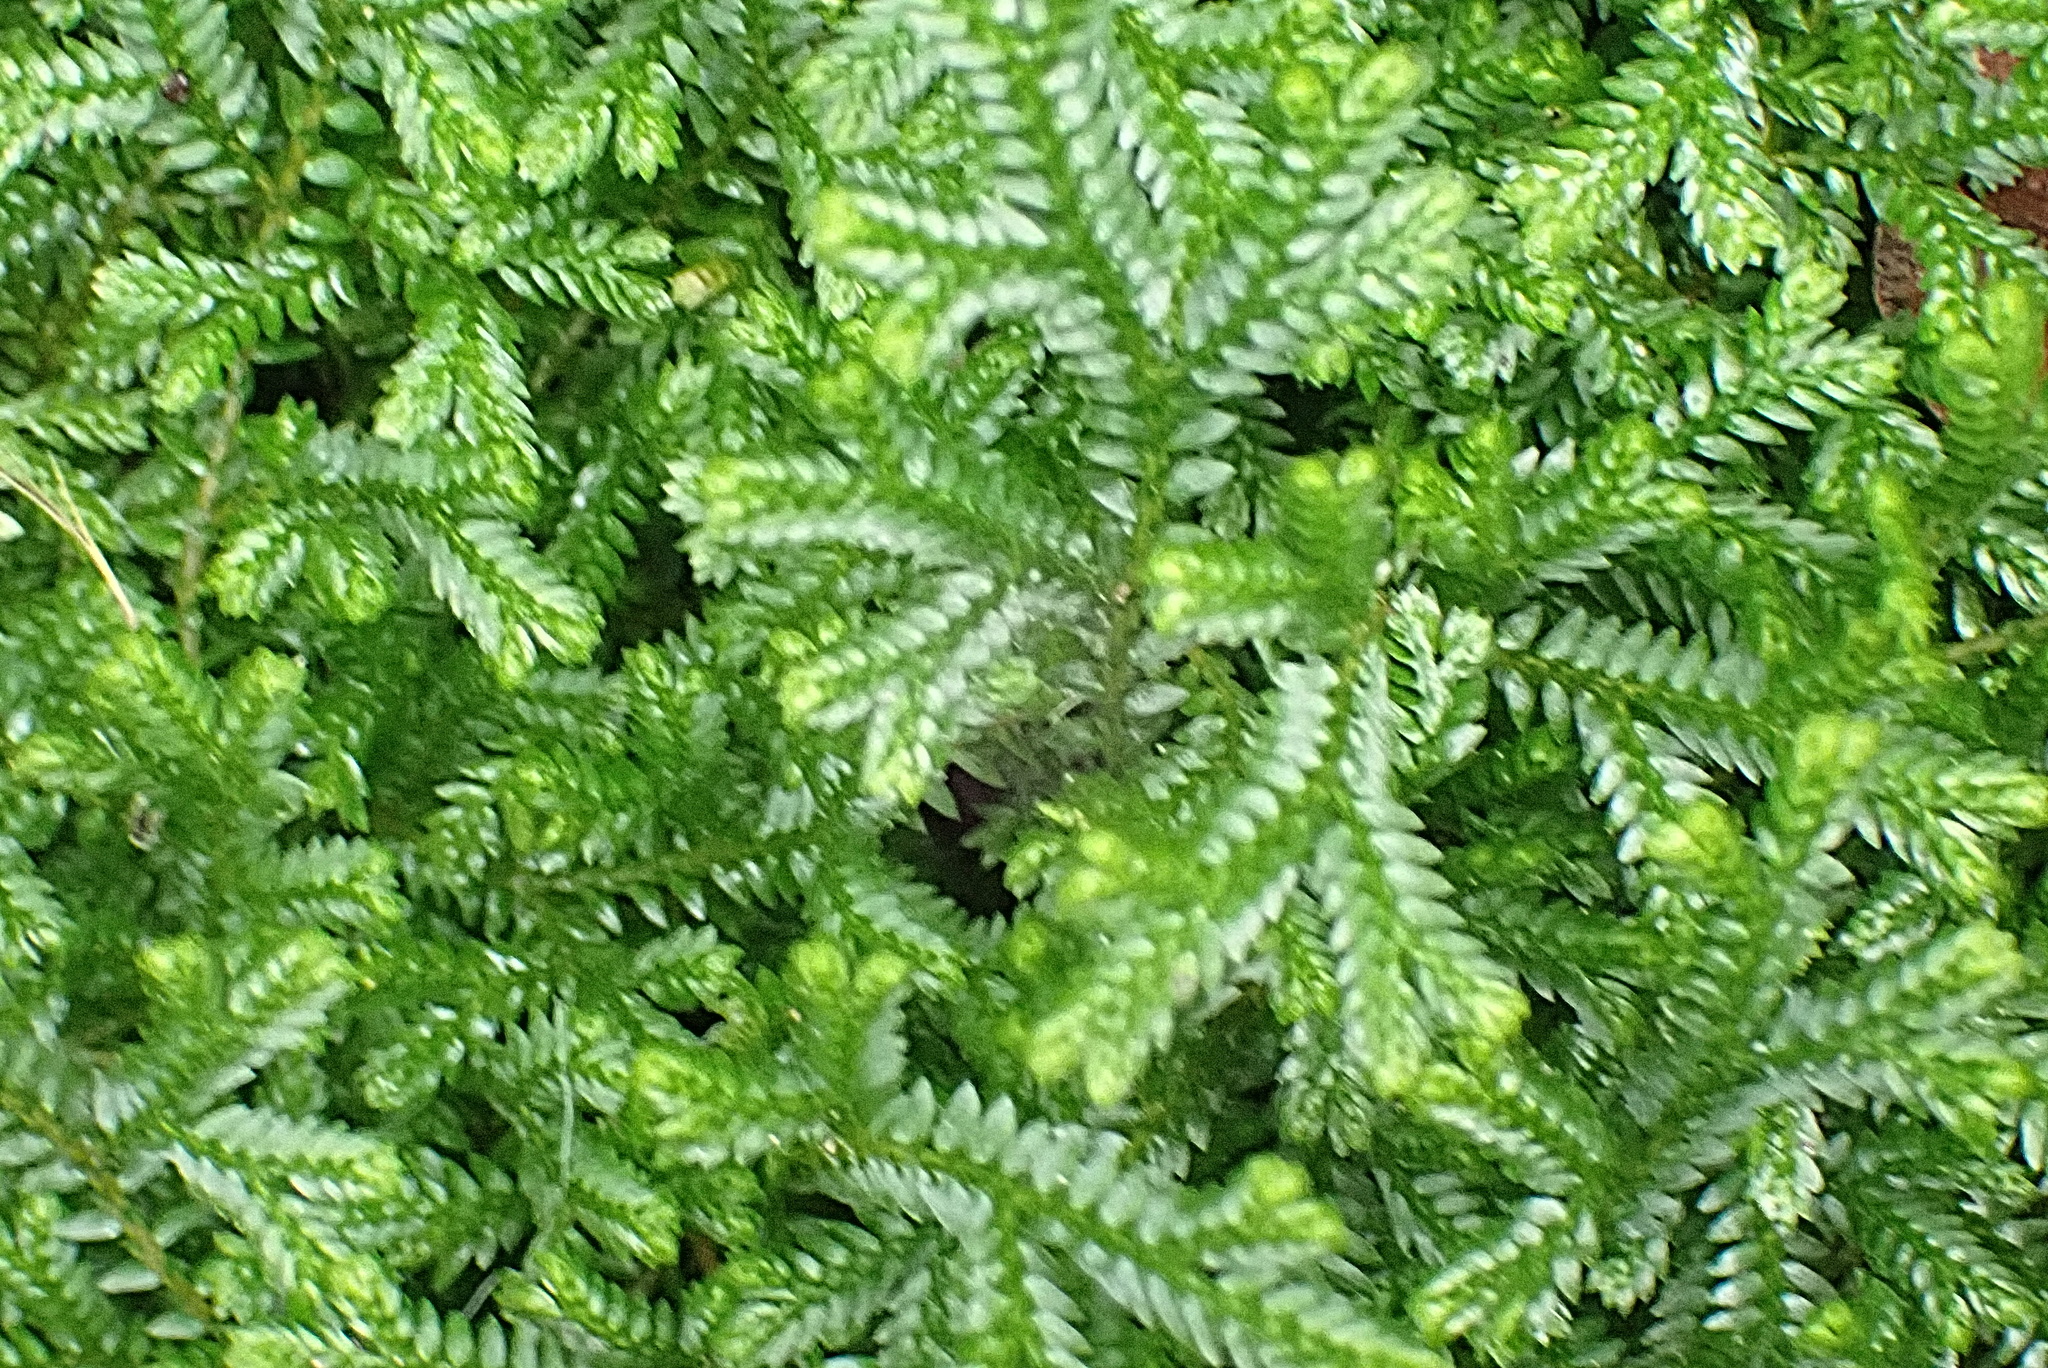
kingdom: Plantae
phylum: Tracheophyta
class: Lycopodiopsida
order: Selaginellales
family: Selaginellaceae
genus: Selaginella
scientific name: Selaginella kraussiana
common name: Krauss' spikemoss
